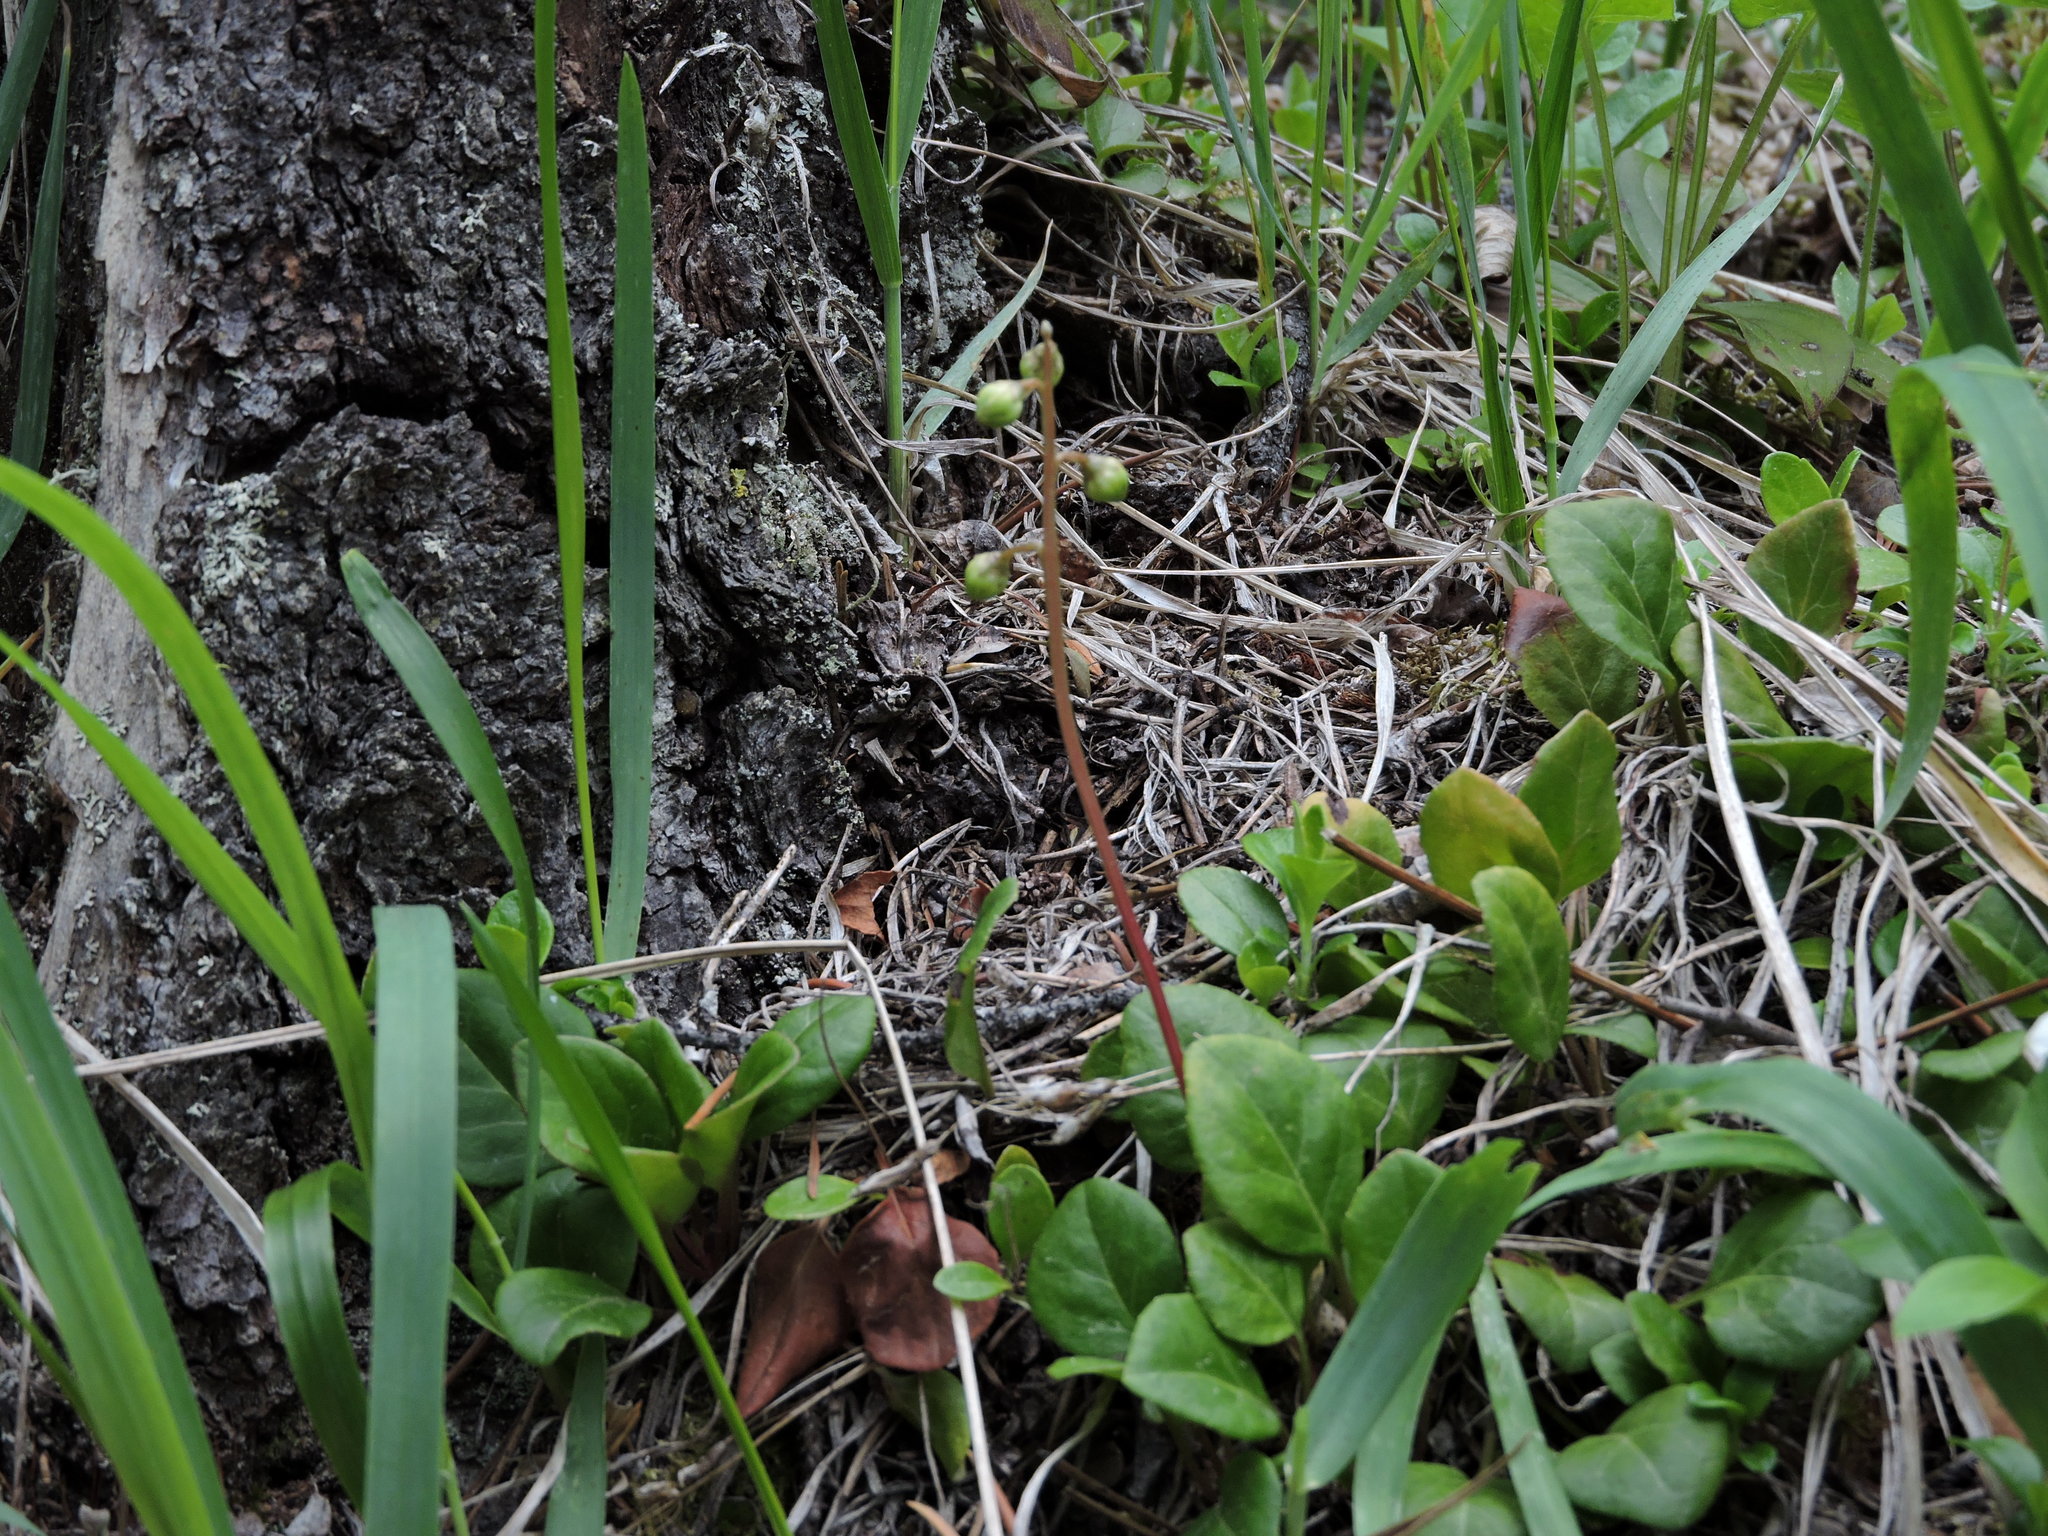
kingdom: Plantae
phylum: Tracheophyta
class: Magnoliopsida
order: Ericales
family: Ericaceae
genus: Pyrola
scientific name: Pyrola chlorantha
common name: Green wintergreen
